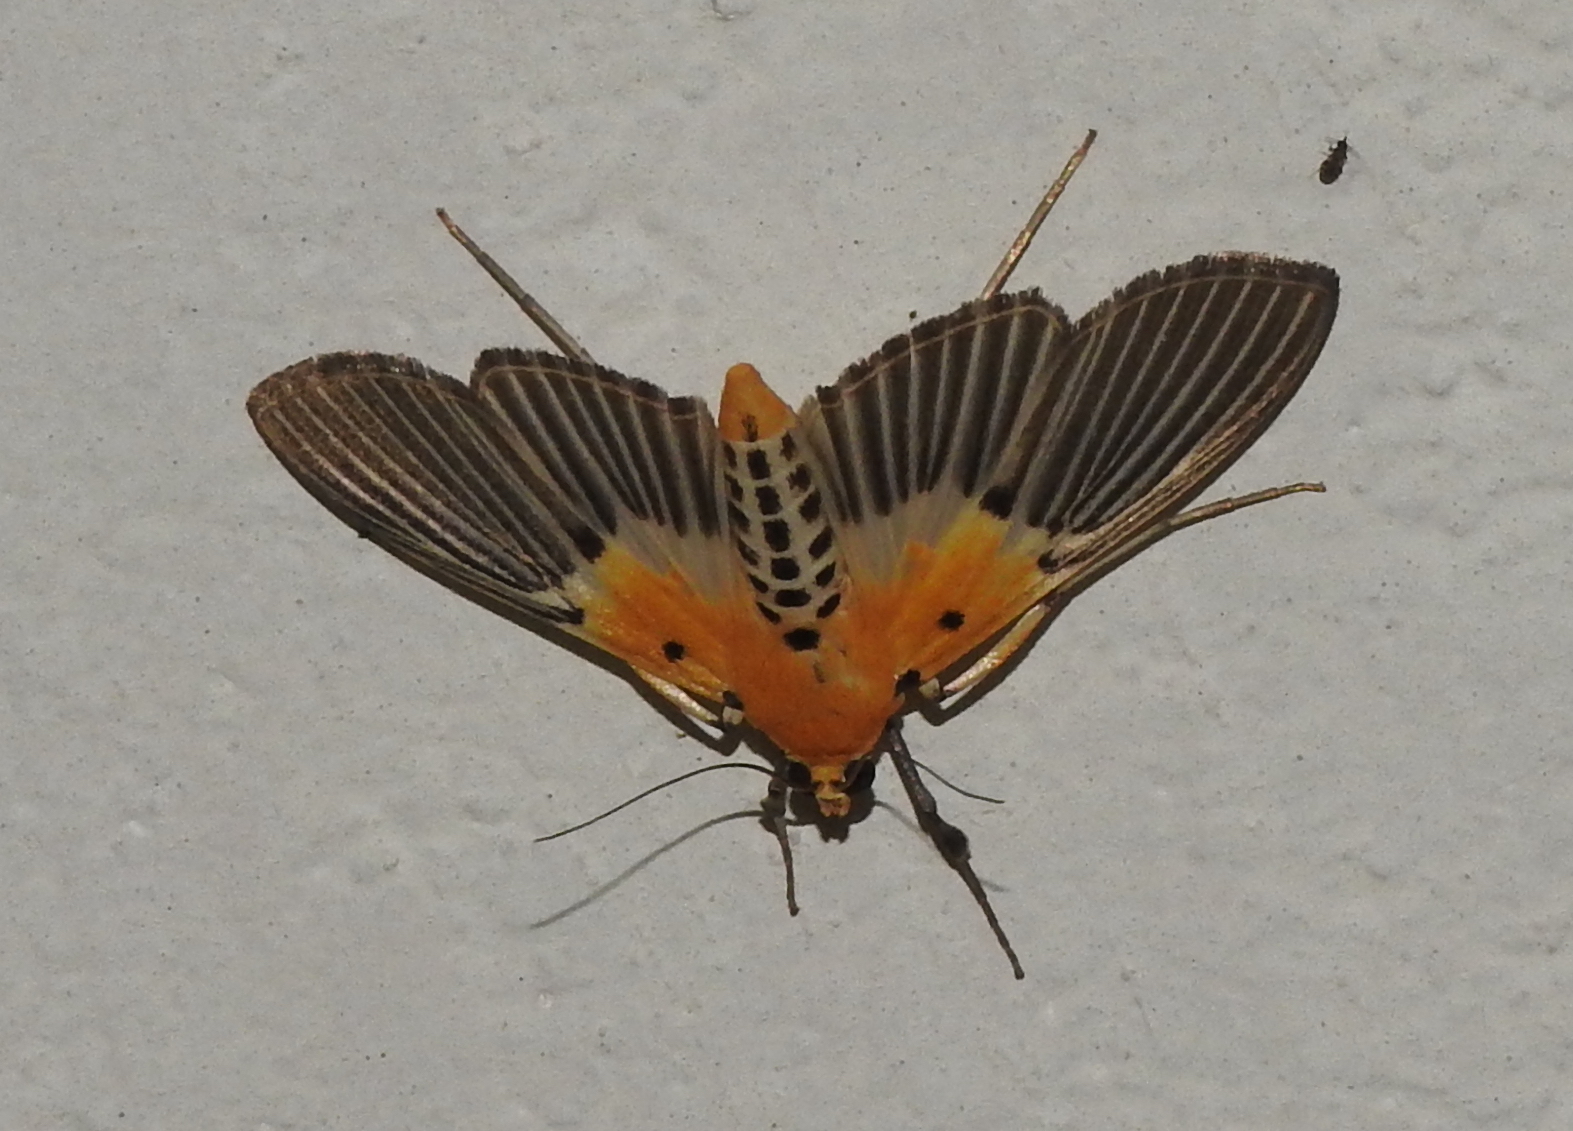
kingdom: Animalia
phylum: Arthropoda
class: Insecta
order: Lepidoptera
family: Crambidae
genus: Nevrina
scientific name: Nevrina procopia
